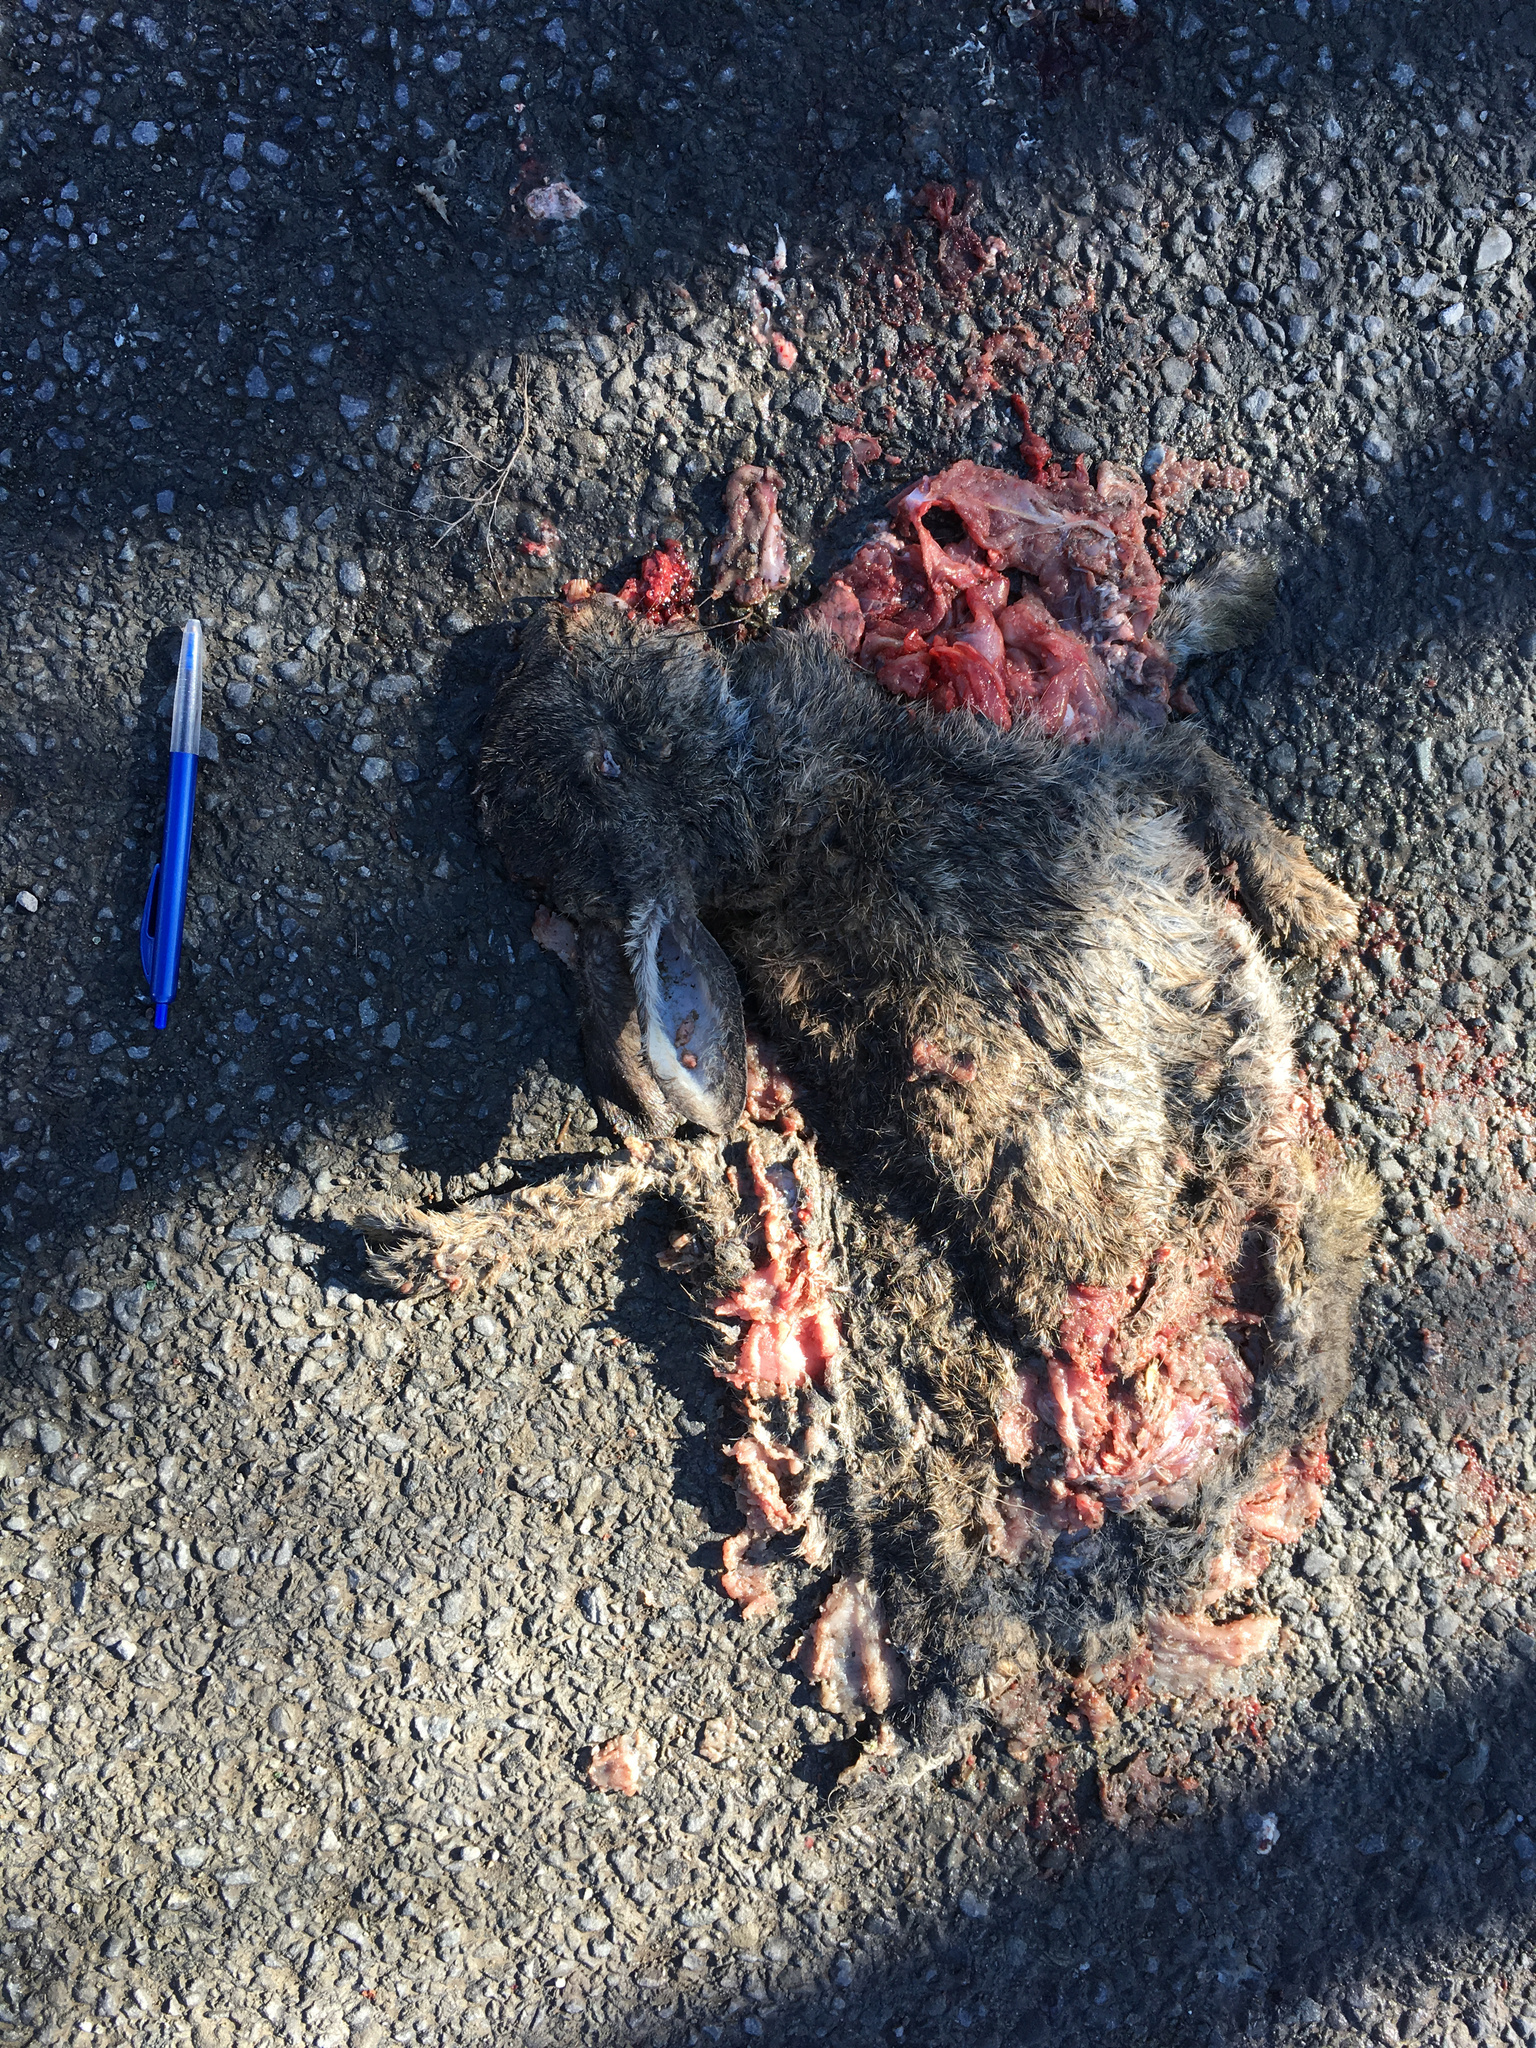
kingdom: Animalia
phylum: Chordata
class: Mammalia
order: Lagomorpha
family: Leporidae
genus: Lepus
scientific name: Lepus europaeus
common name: European hare
